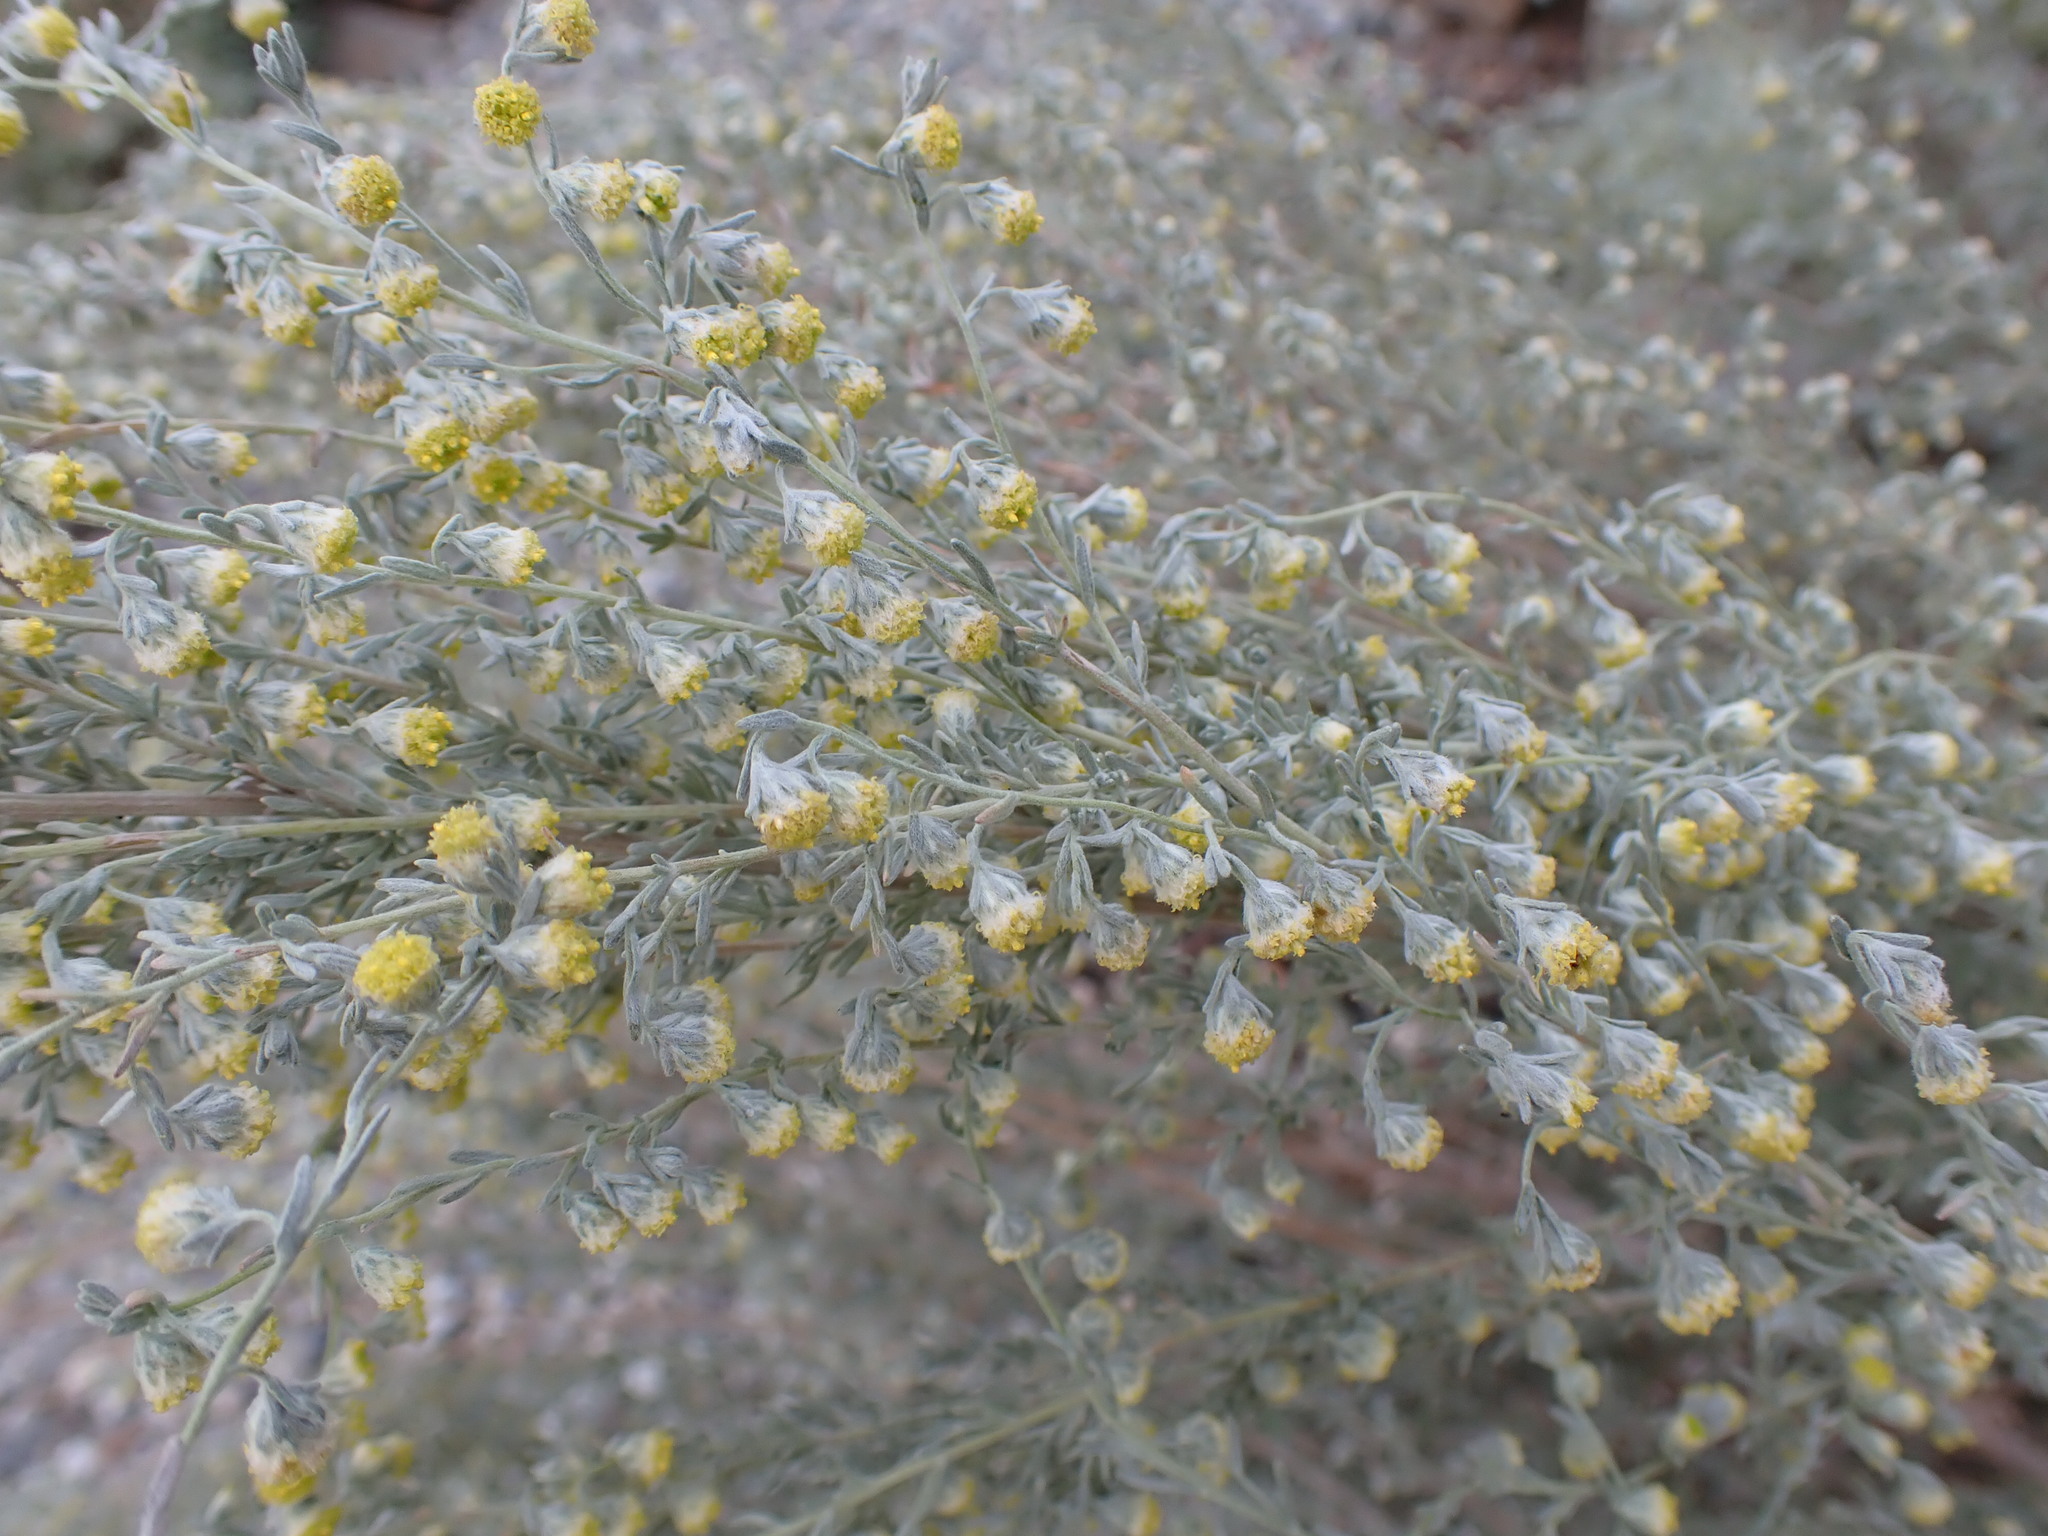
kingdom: Plantae
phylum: Tracheophyta
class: Magnoliopsida
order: Asterales
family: Asteraceae
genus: Artemisia
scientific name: Artemisia frigida
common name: Prairie sagewort
